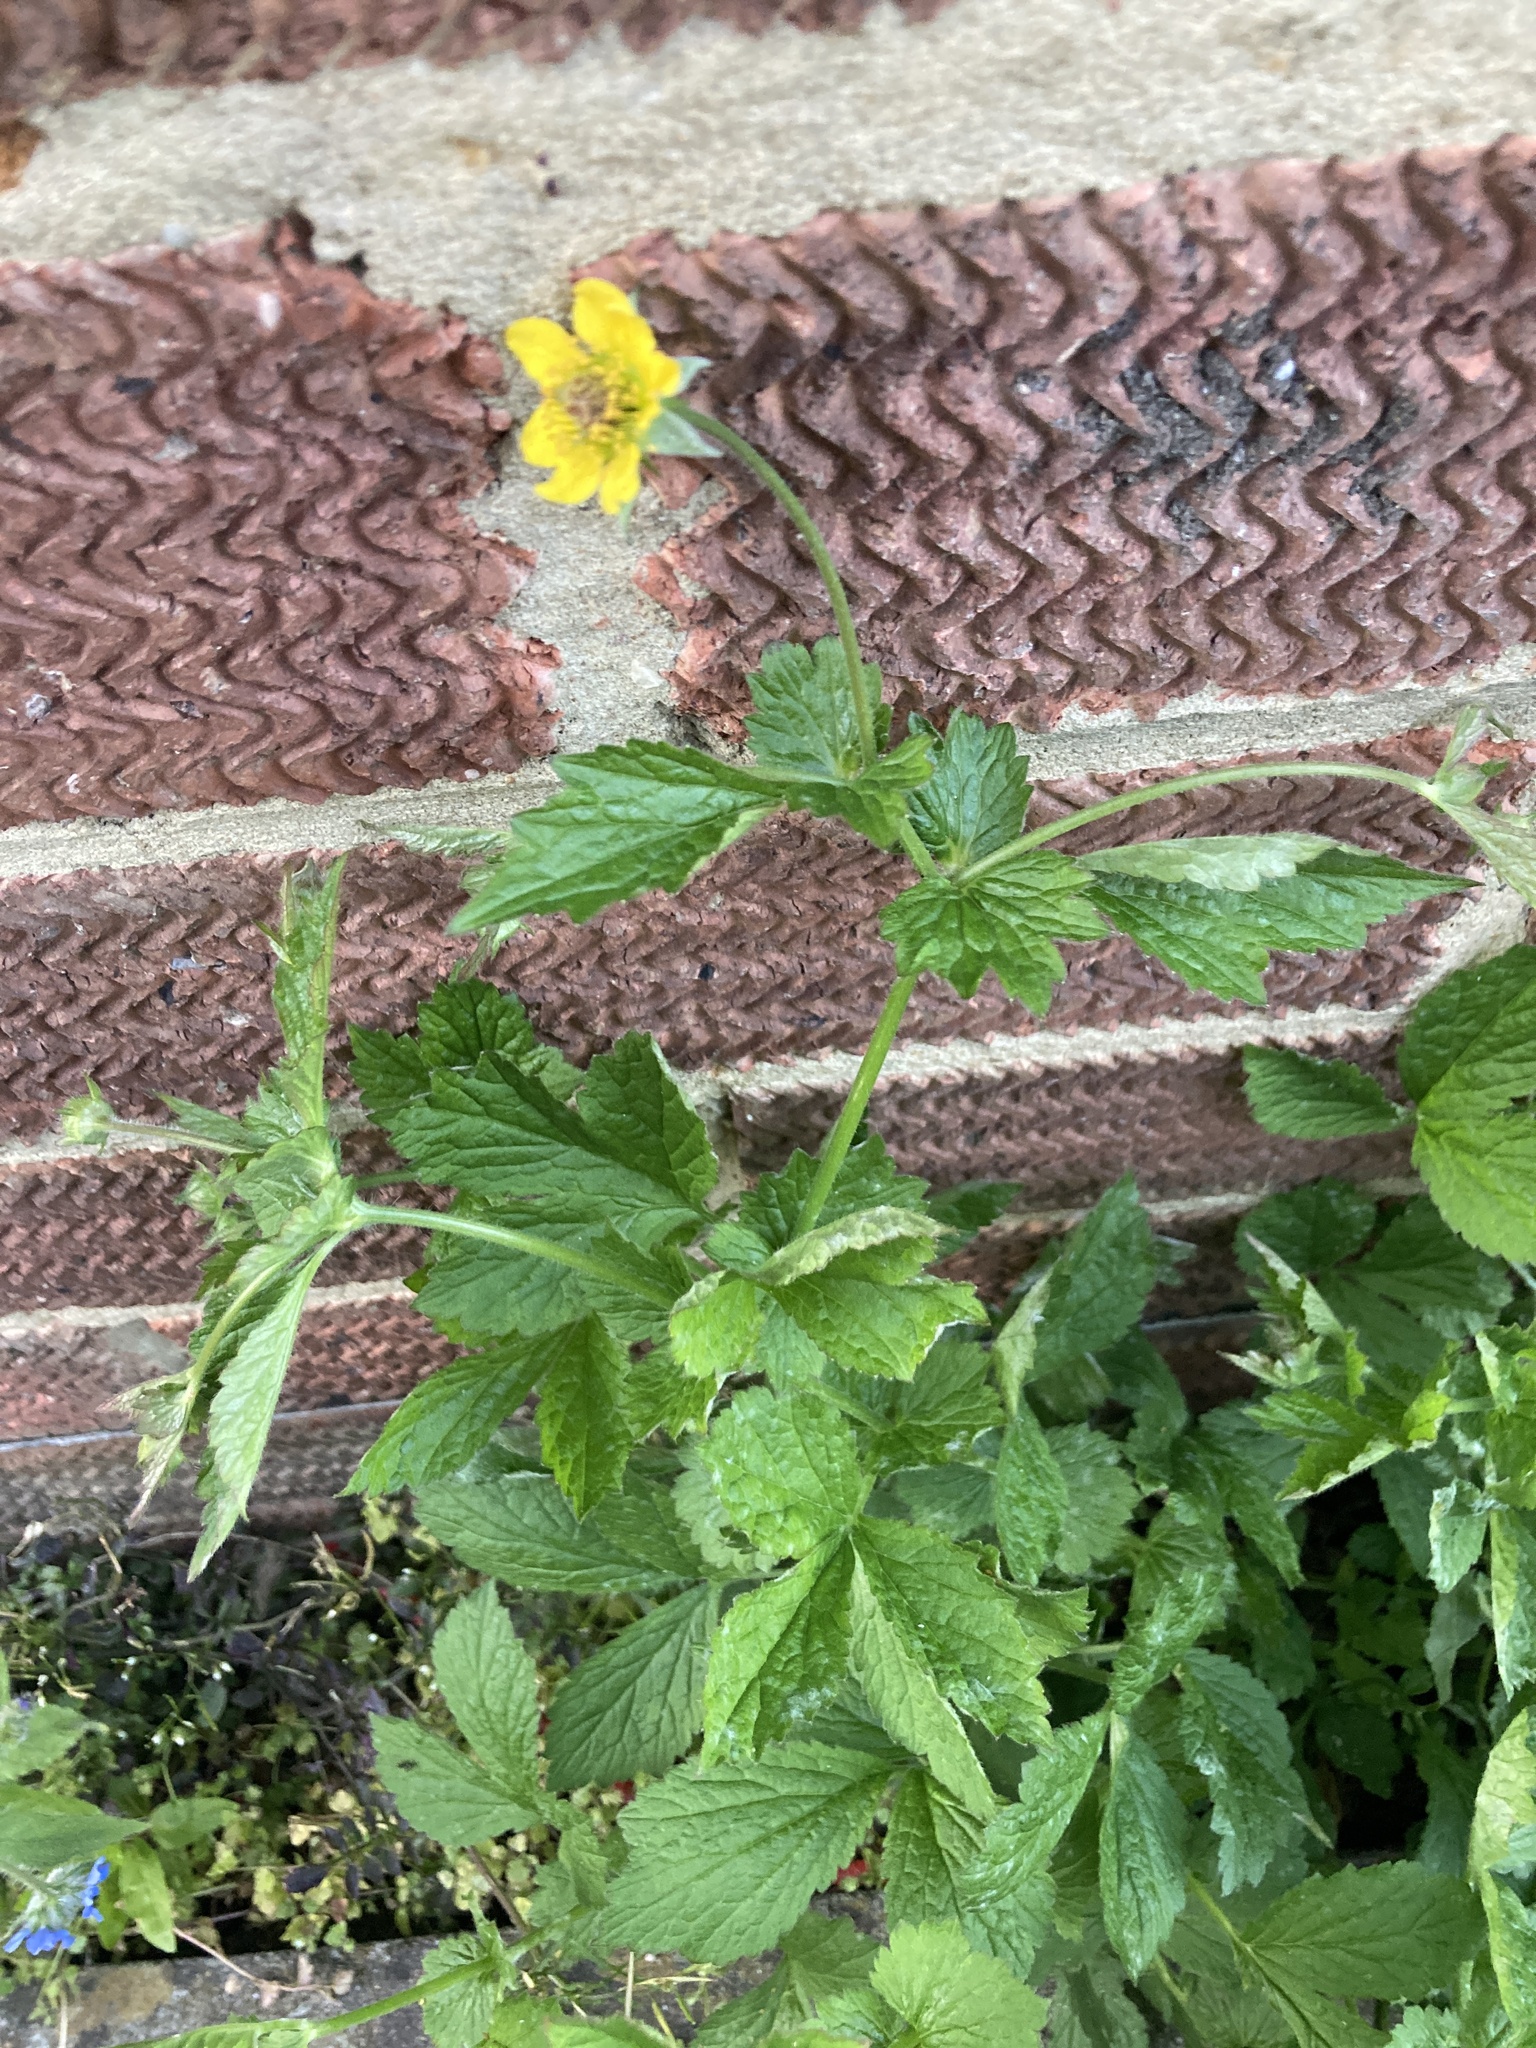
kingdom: Plantae
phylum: Tracheophyta
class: Magnoliopsida
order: Rosales
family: Rosaceae
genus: Geum
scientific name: Geum urbanum
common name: Wood avens
